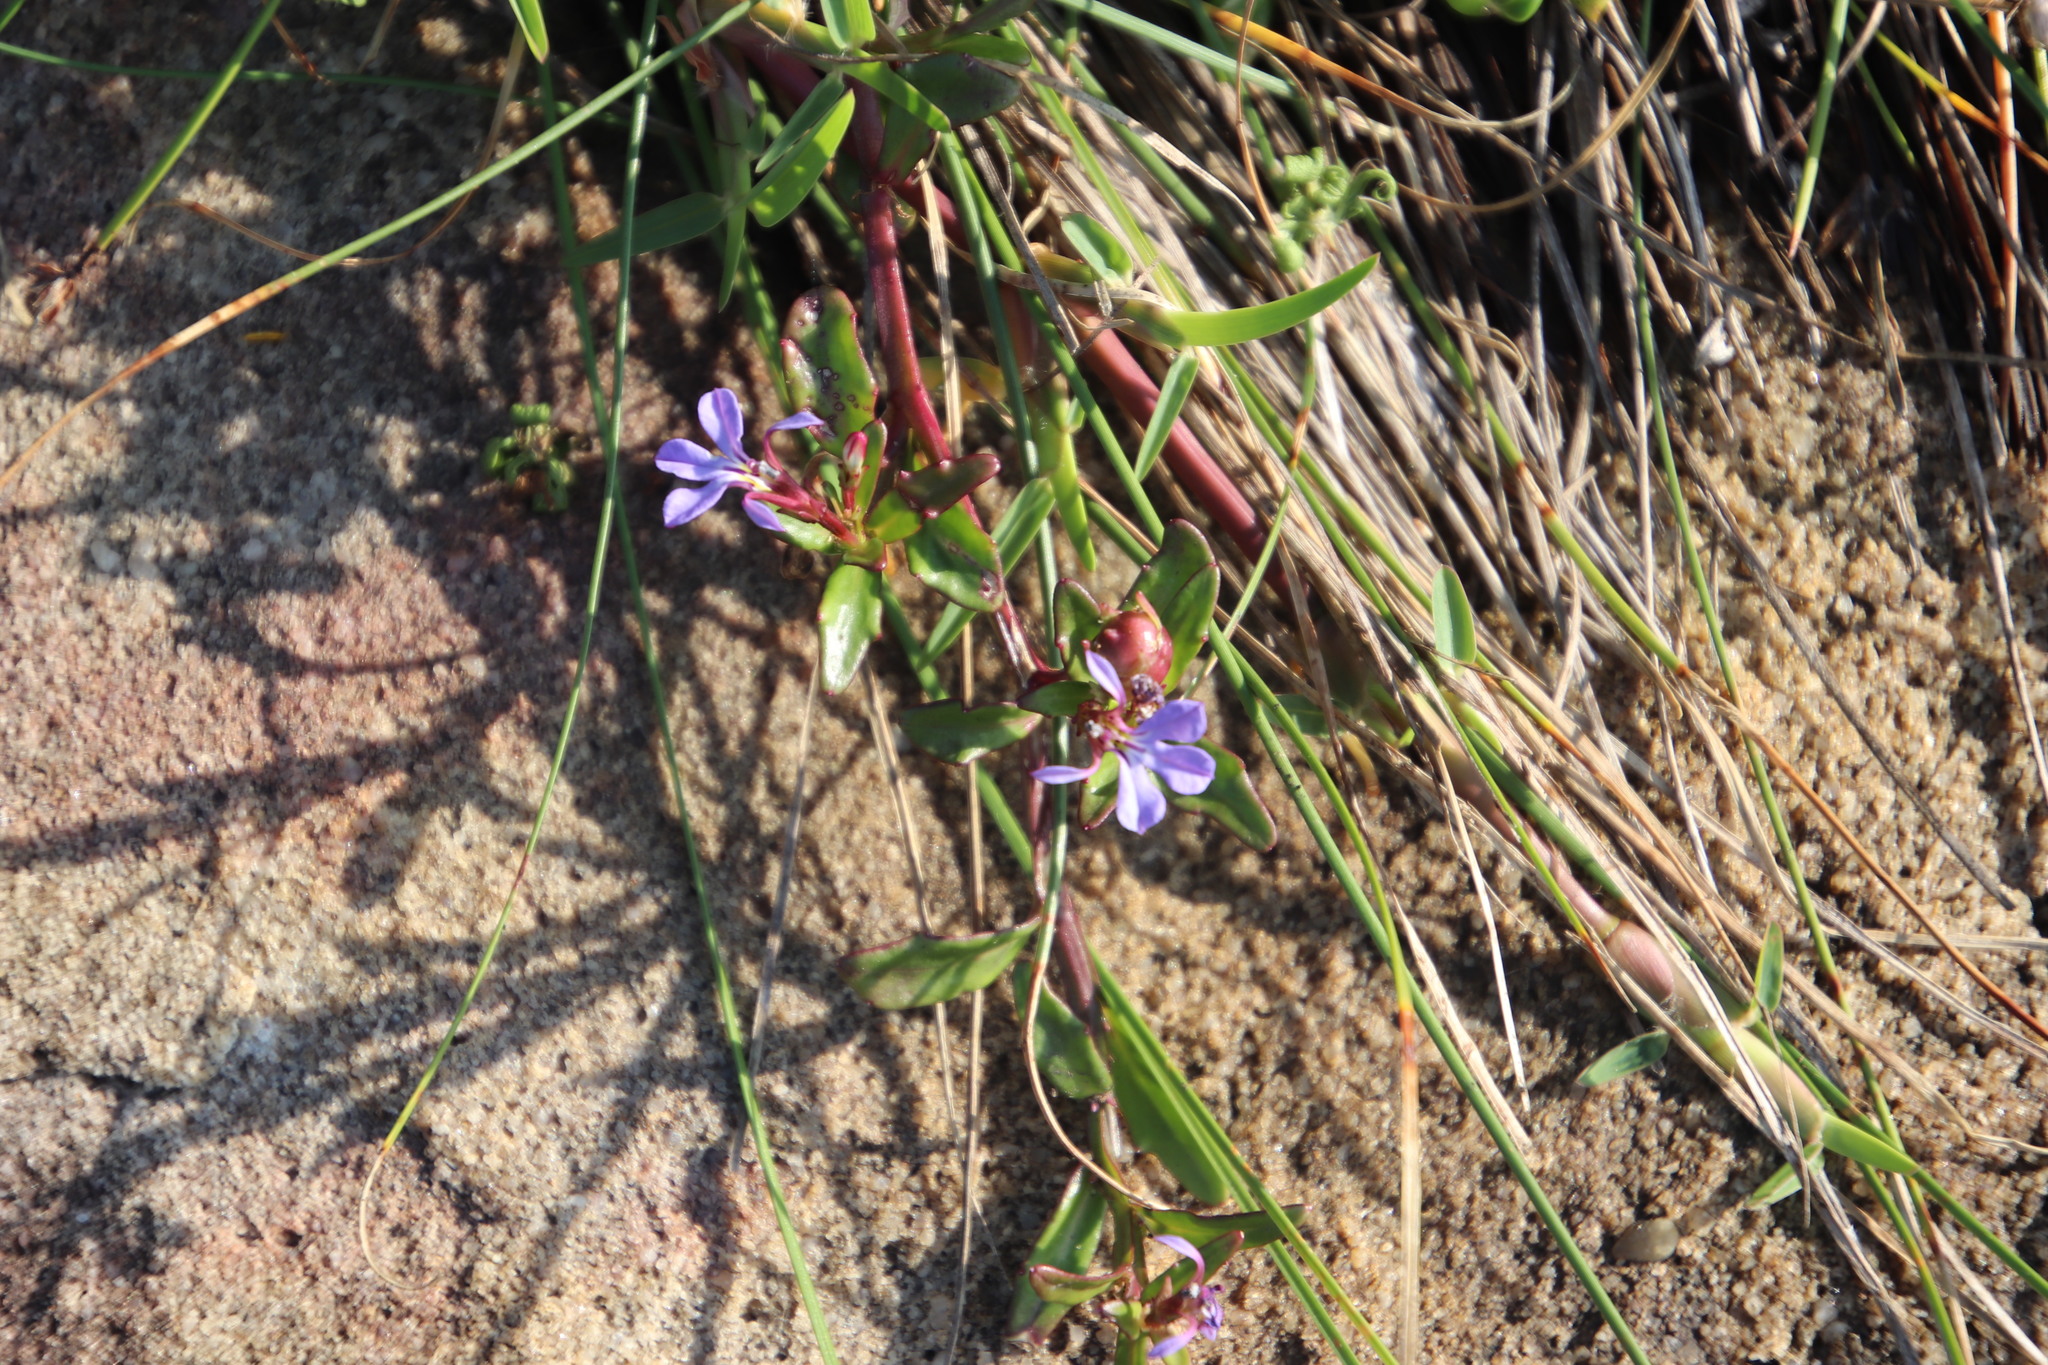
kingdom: Plantae
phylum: Tracheophyta
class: Magnoliopsida
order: Asterales
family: Campanulaceae
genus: Lobelia
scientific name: Lobelia anceps
